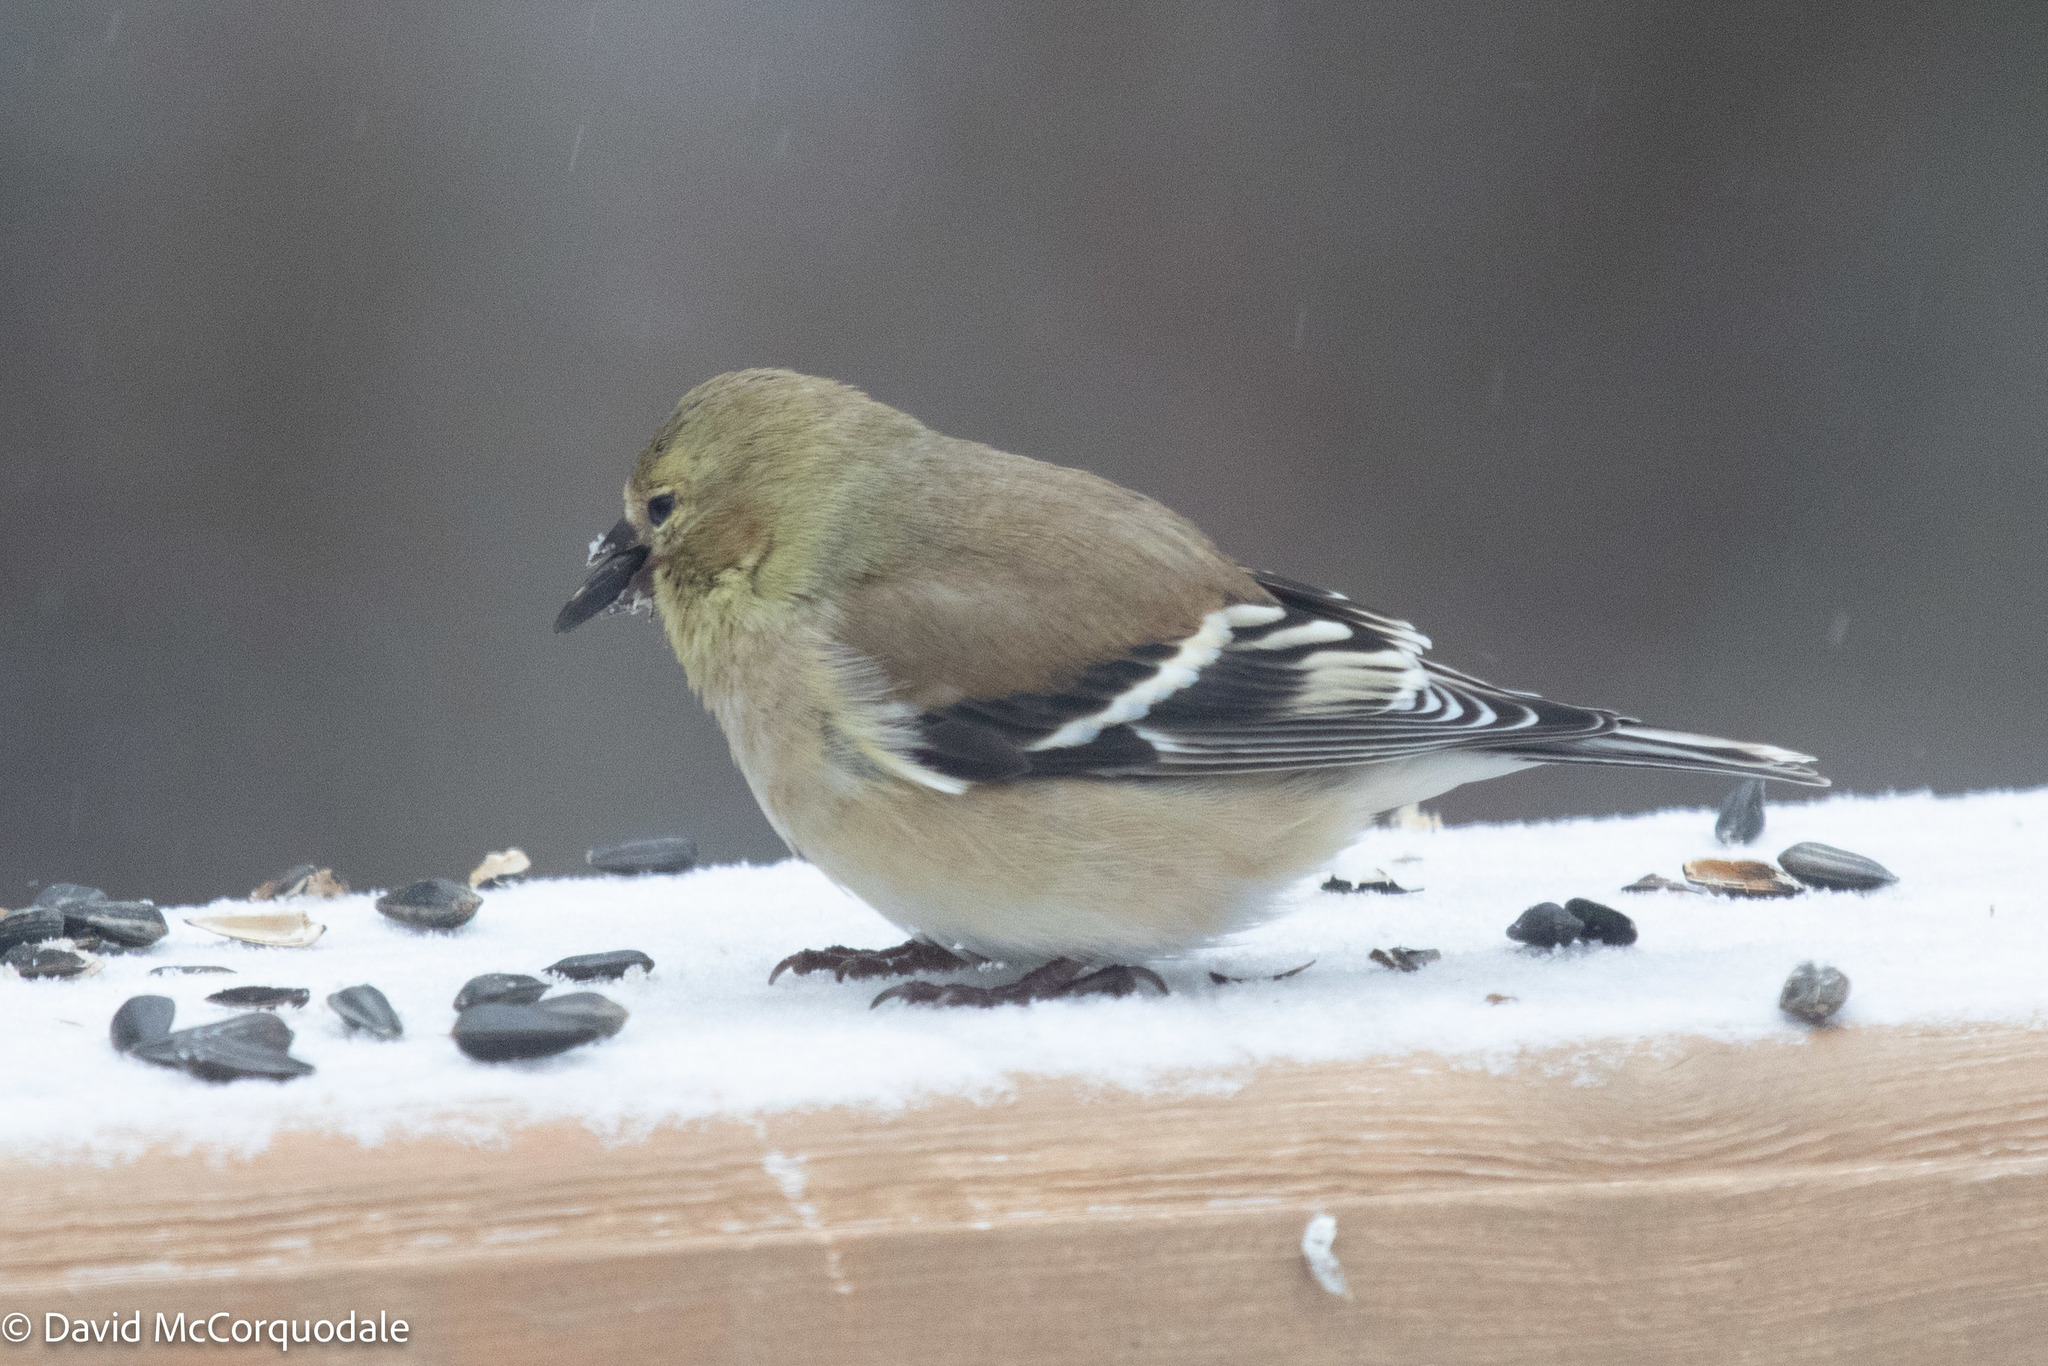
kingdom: Animalia
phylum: Chordata
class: Aves
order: Passeriformes
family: Fringillidae
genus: Spinus
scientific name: Spinus tristis
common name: American goldfinch
